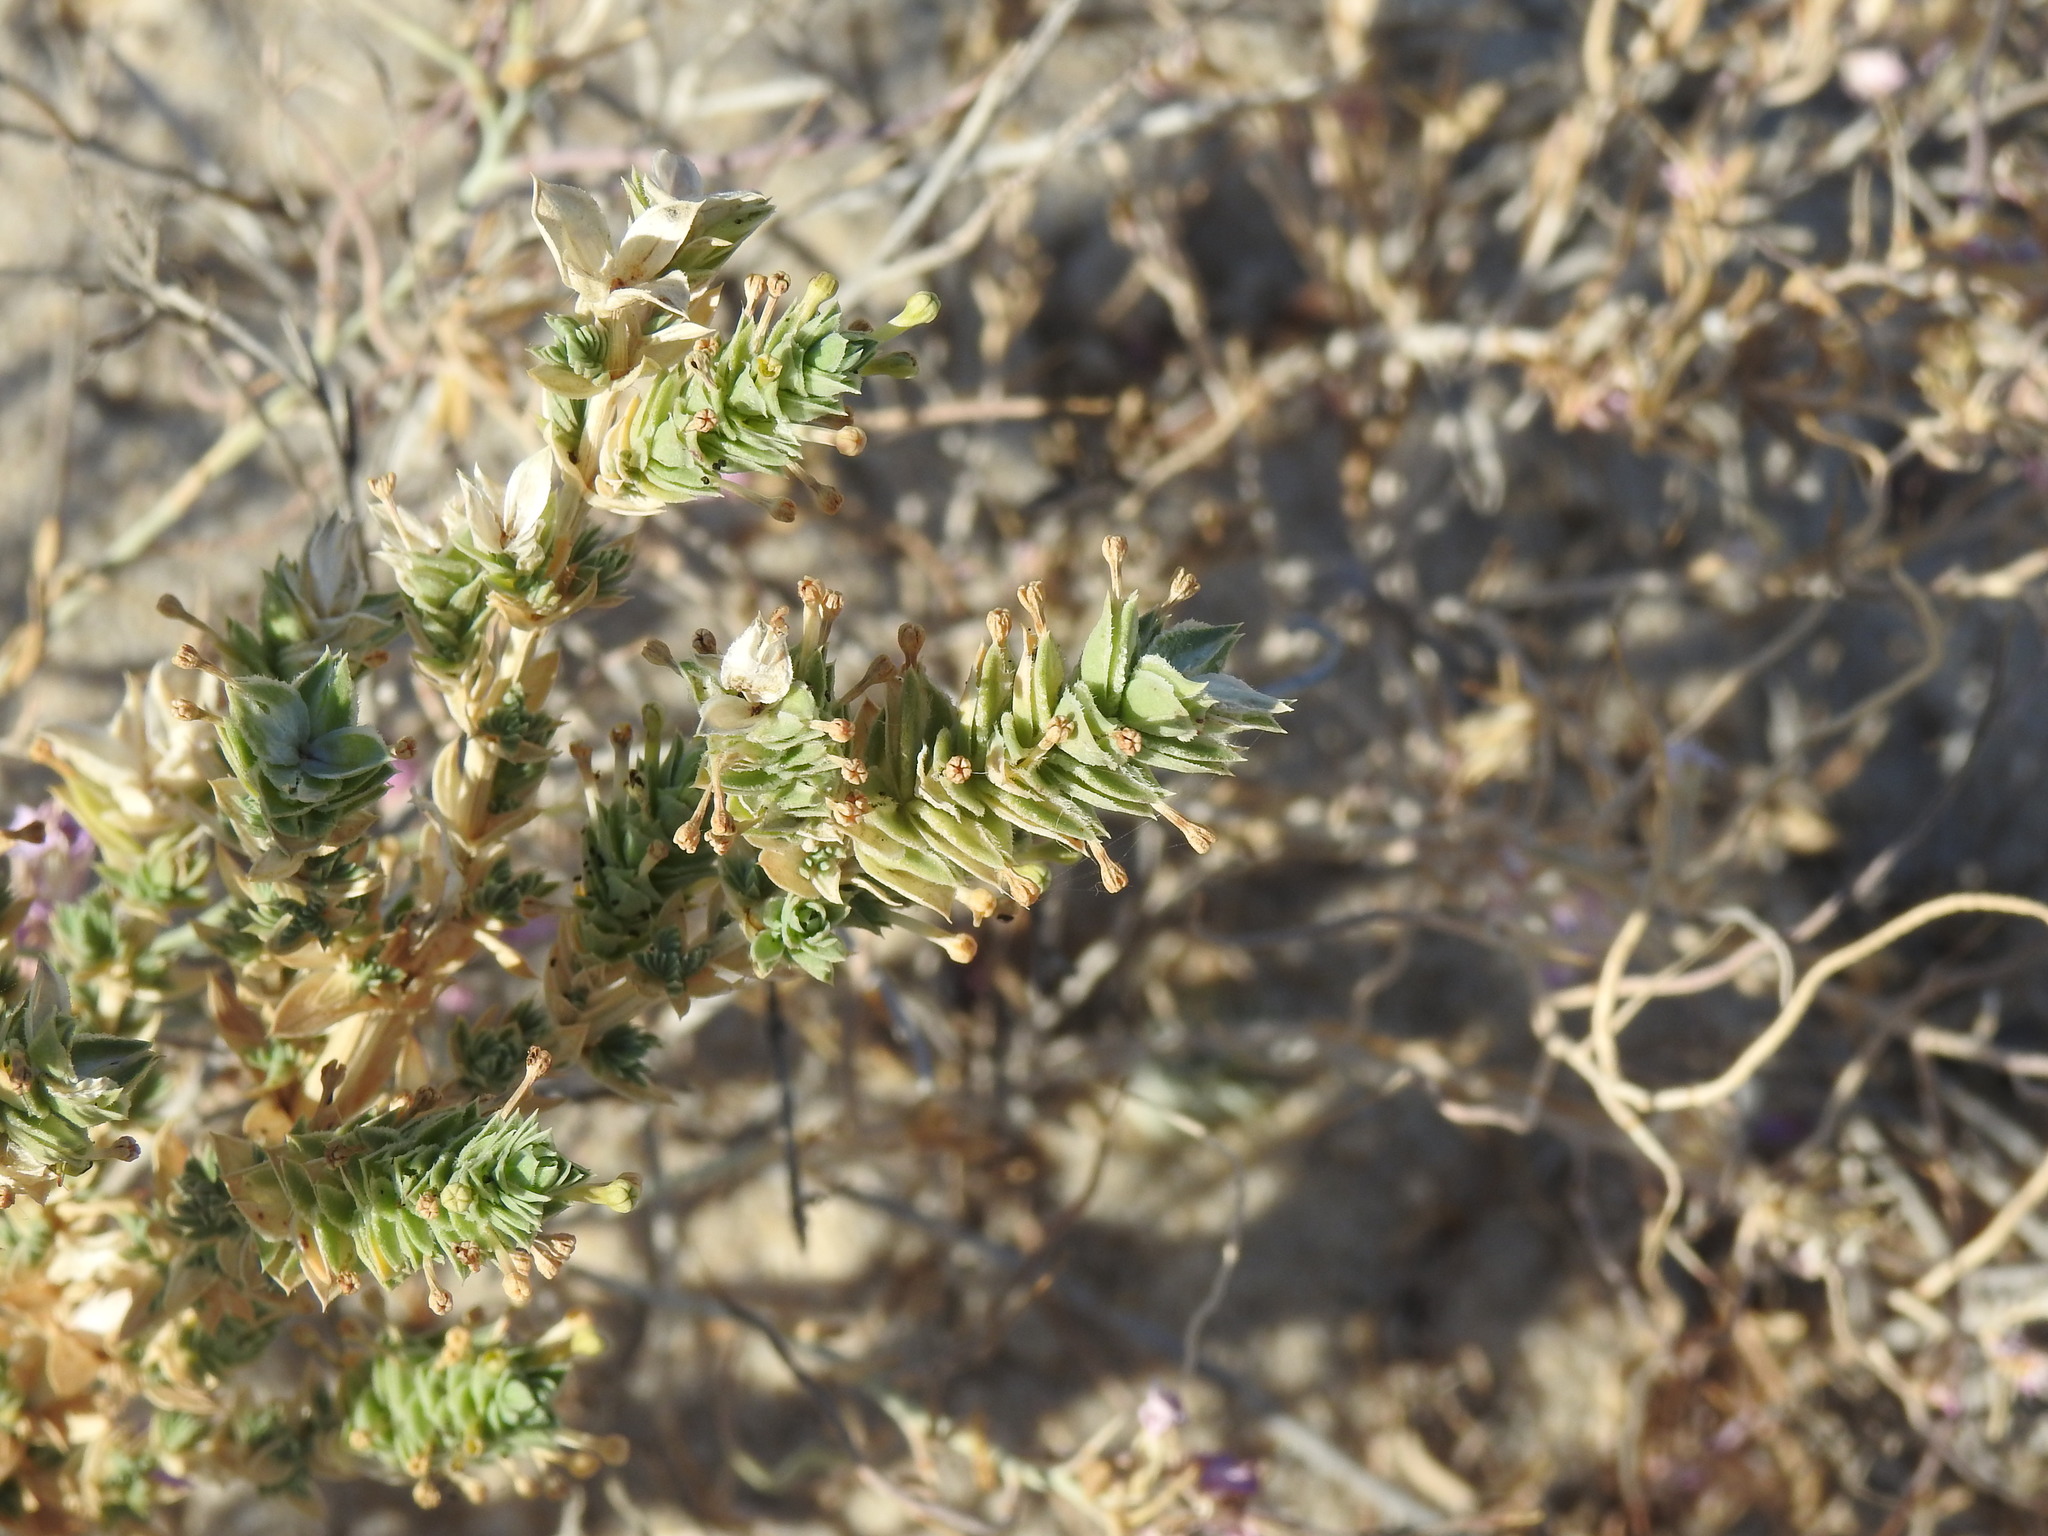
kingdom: Plantae
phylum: Tracheophyta
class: Magnoliopsida
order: Gentianales
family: Rubiaceae
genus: Crucianella
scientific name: Crucianella maritima
